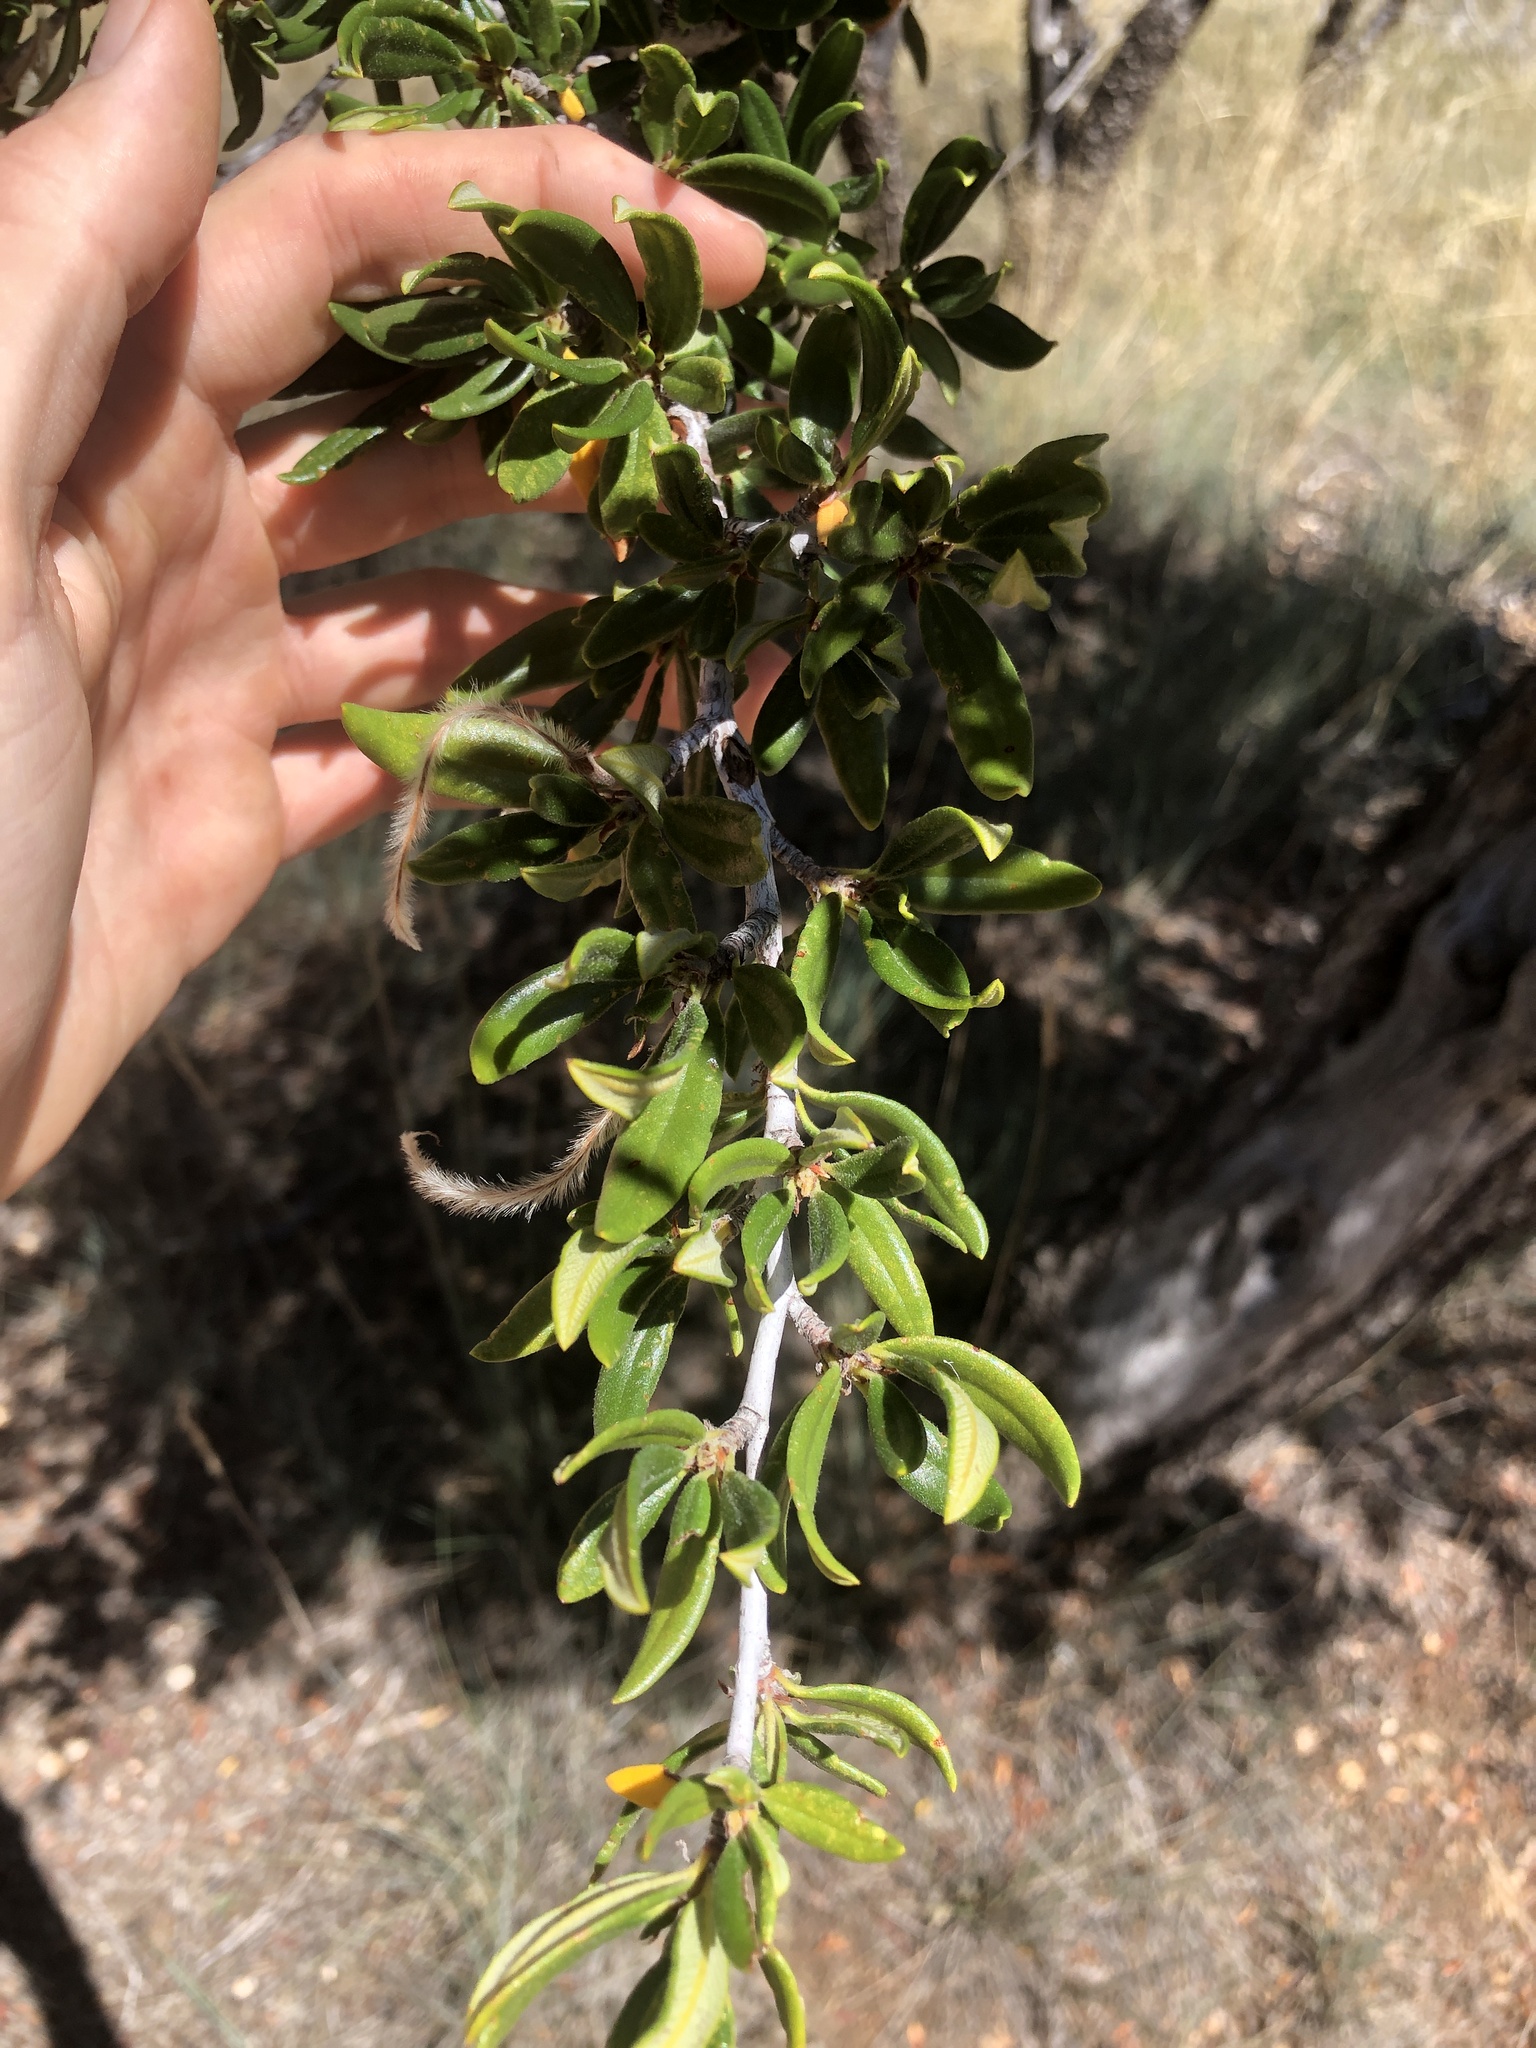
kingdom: Plantae
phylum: Tracheophyta
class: Magnoliopsida
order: Rosales
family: Rosaceae
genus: Cercocarpus
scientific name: Cercocarpus ledifolius
